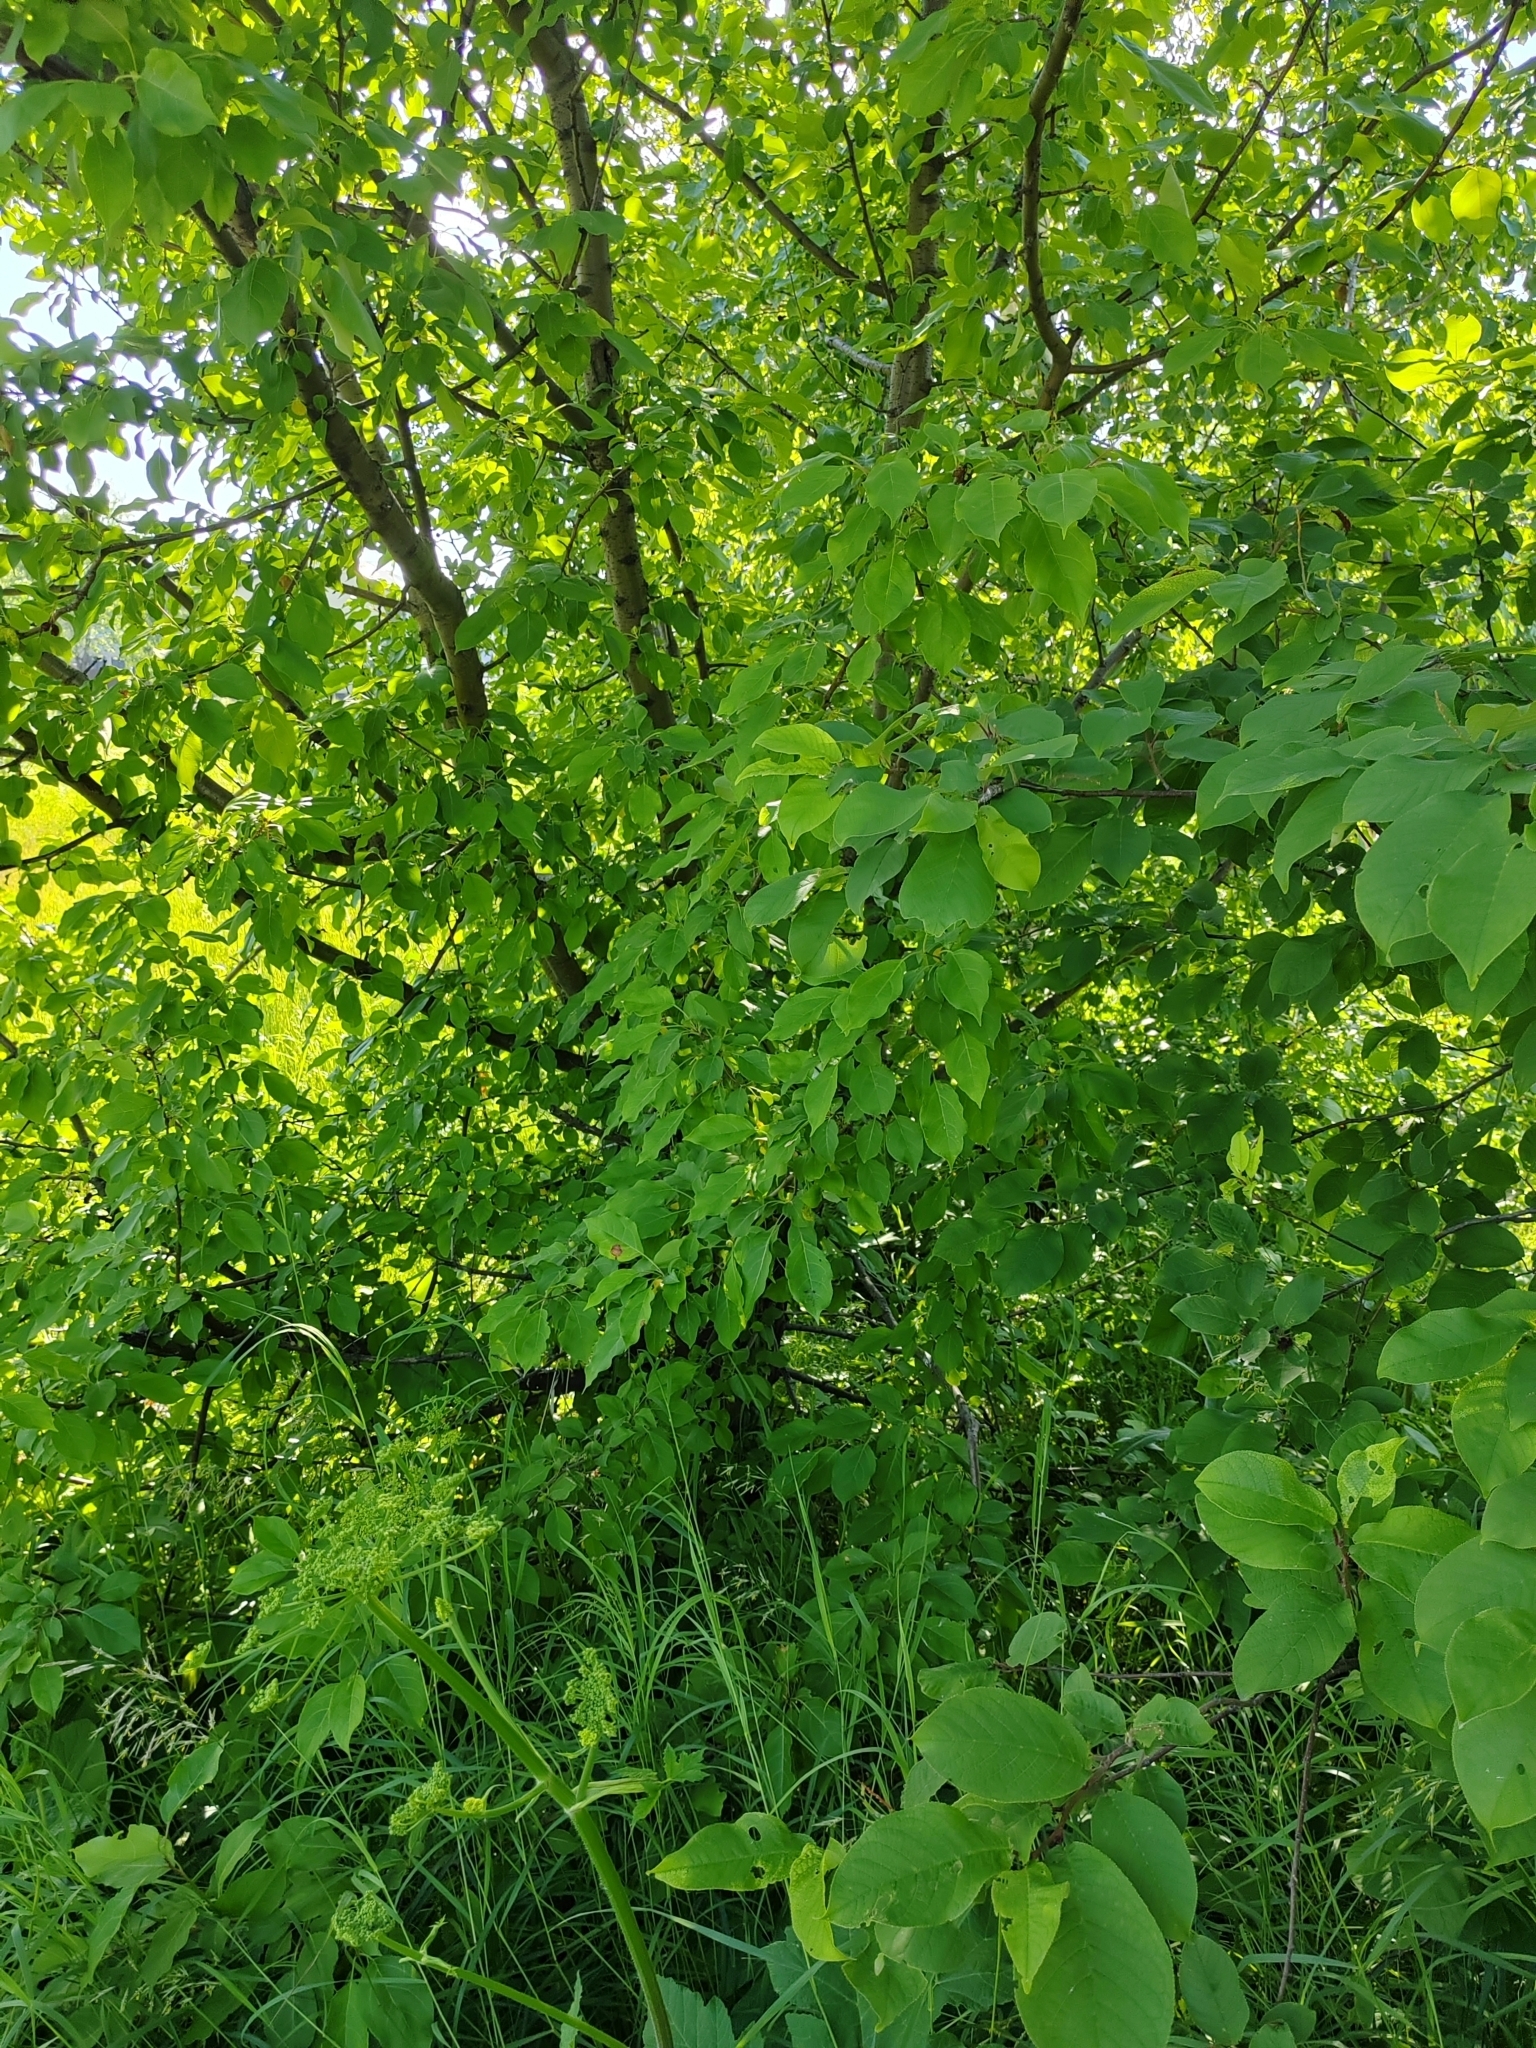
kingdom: Plantae
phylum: Tracheophyta
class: Magnoliopsida
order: Rosales
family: Rosaceae
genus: Malus
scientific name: Malus baccata
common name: Siberian crab
